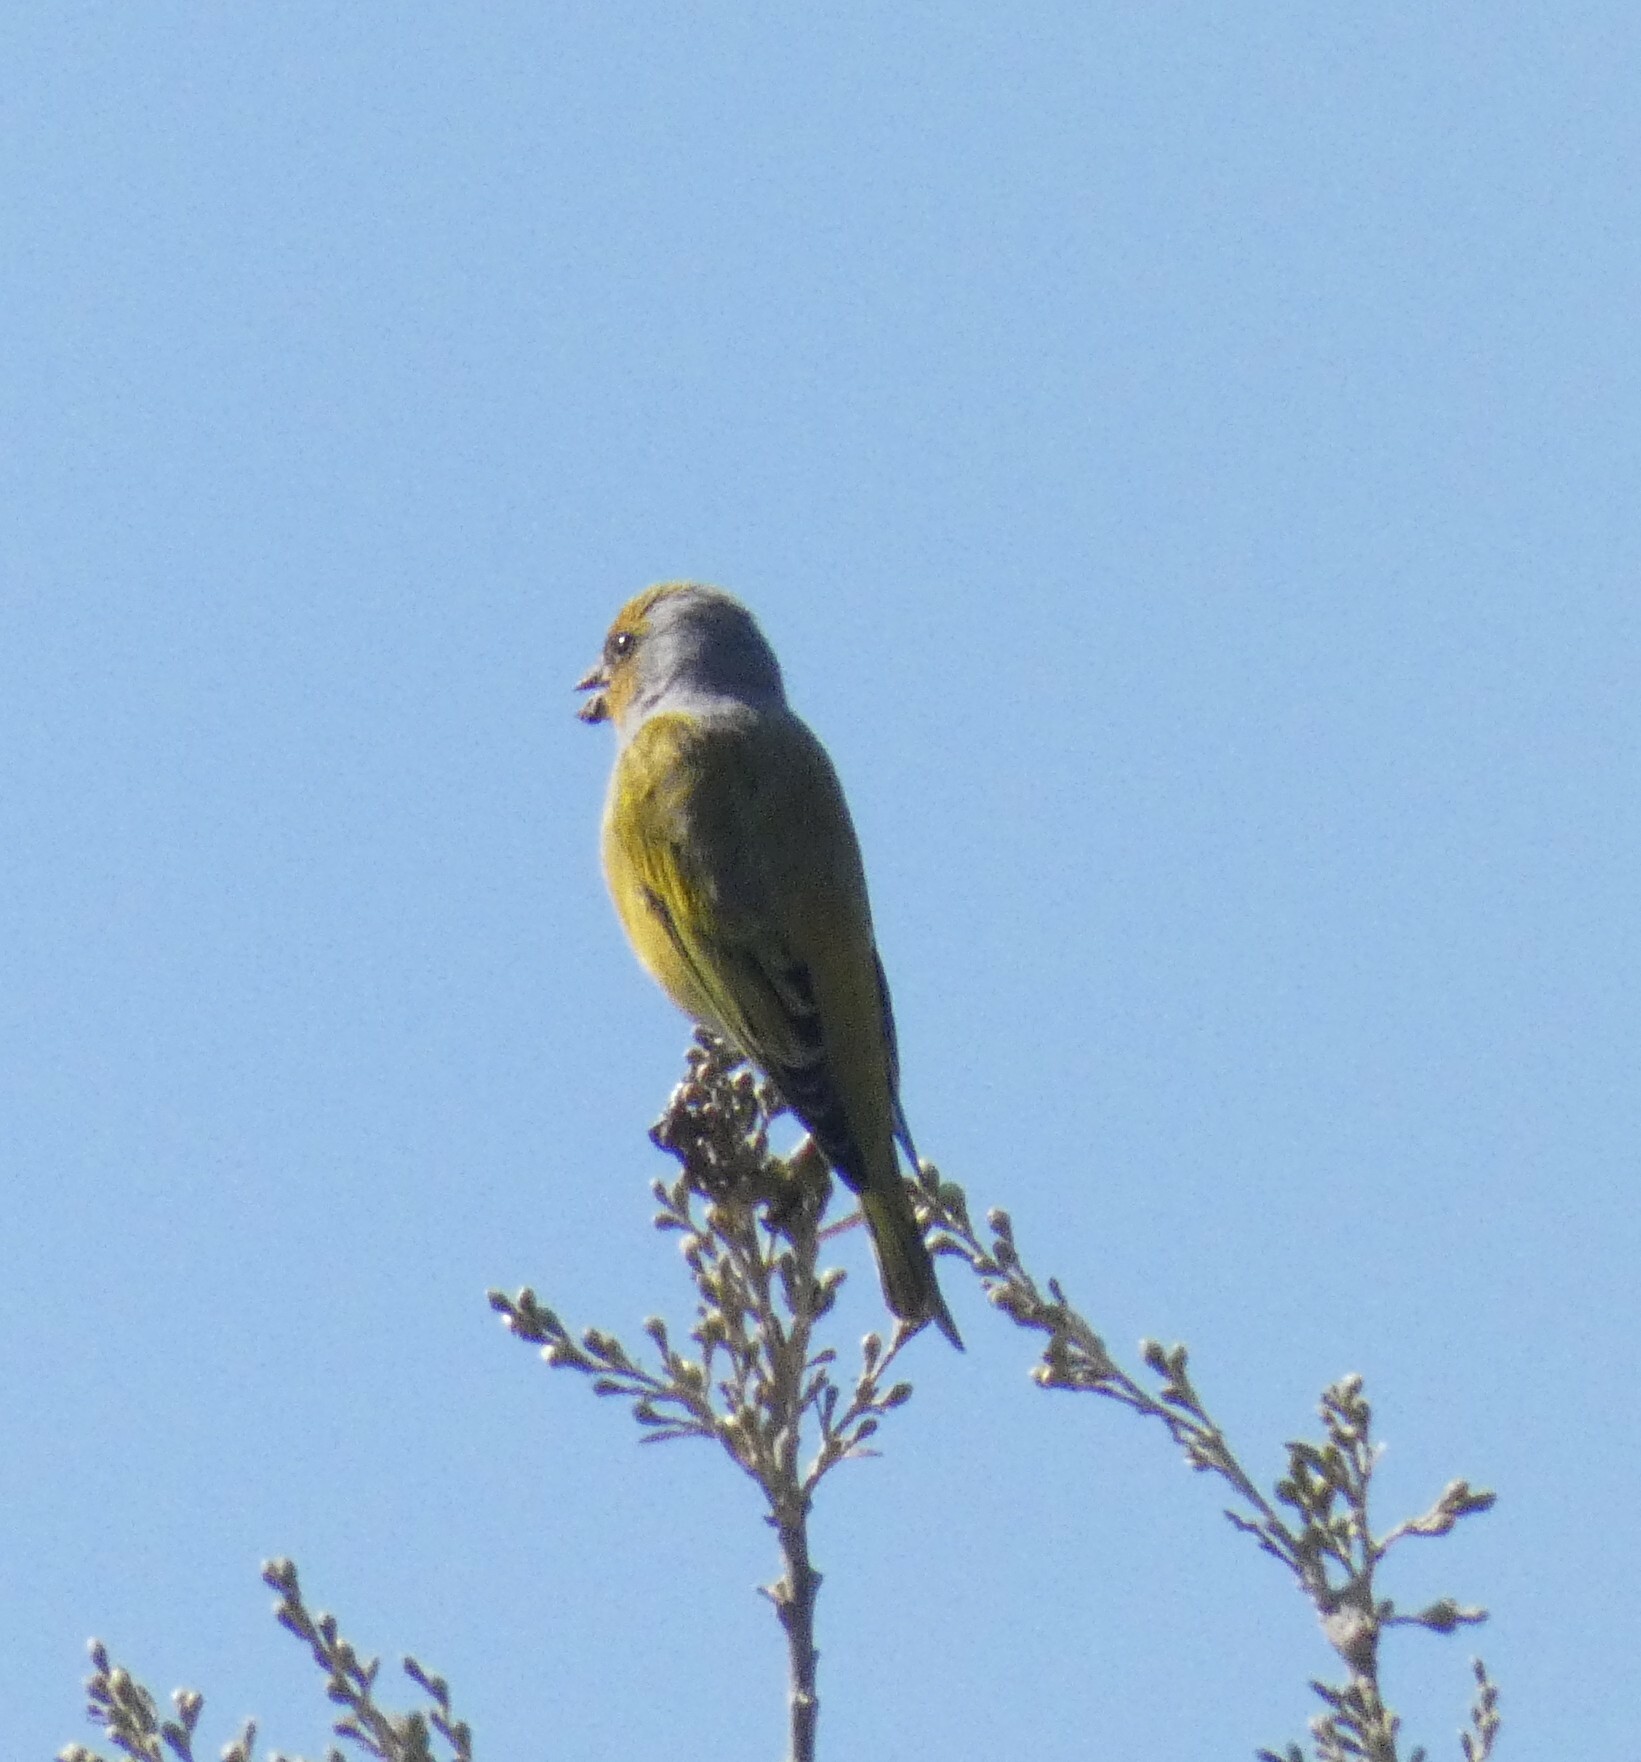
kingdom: Animalia
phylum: Chordata
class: Aves
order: Passeriformes
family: Fringillidae
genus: Serinus
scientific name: Serinus canicollis
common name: Cape canary
